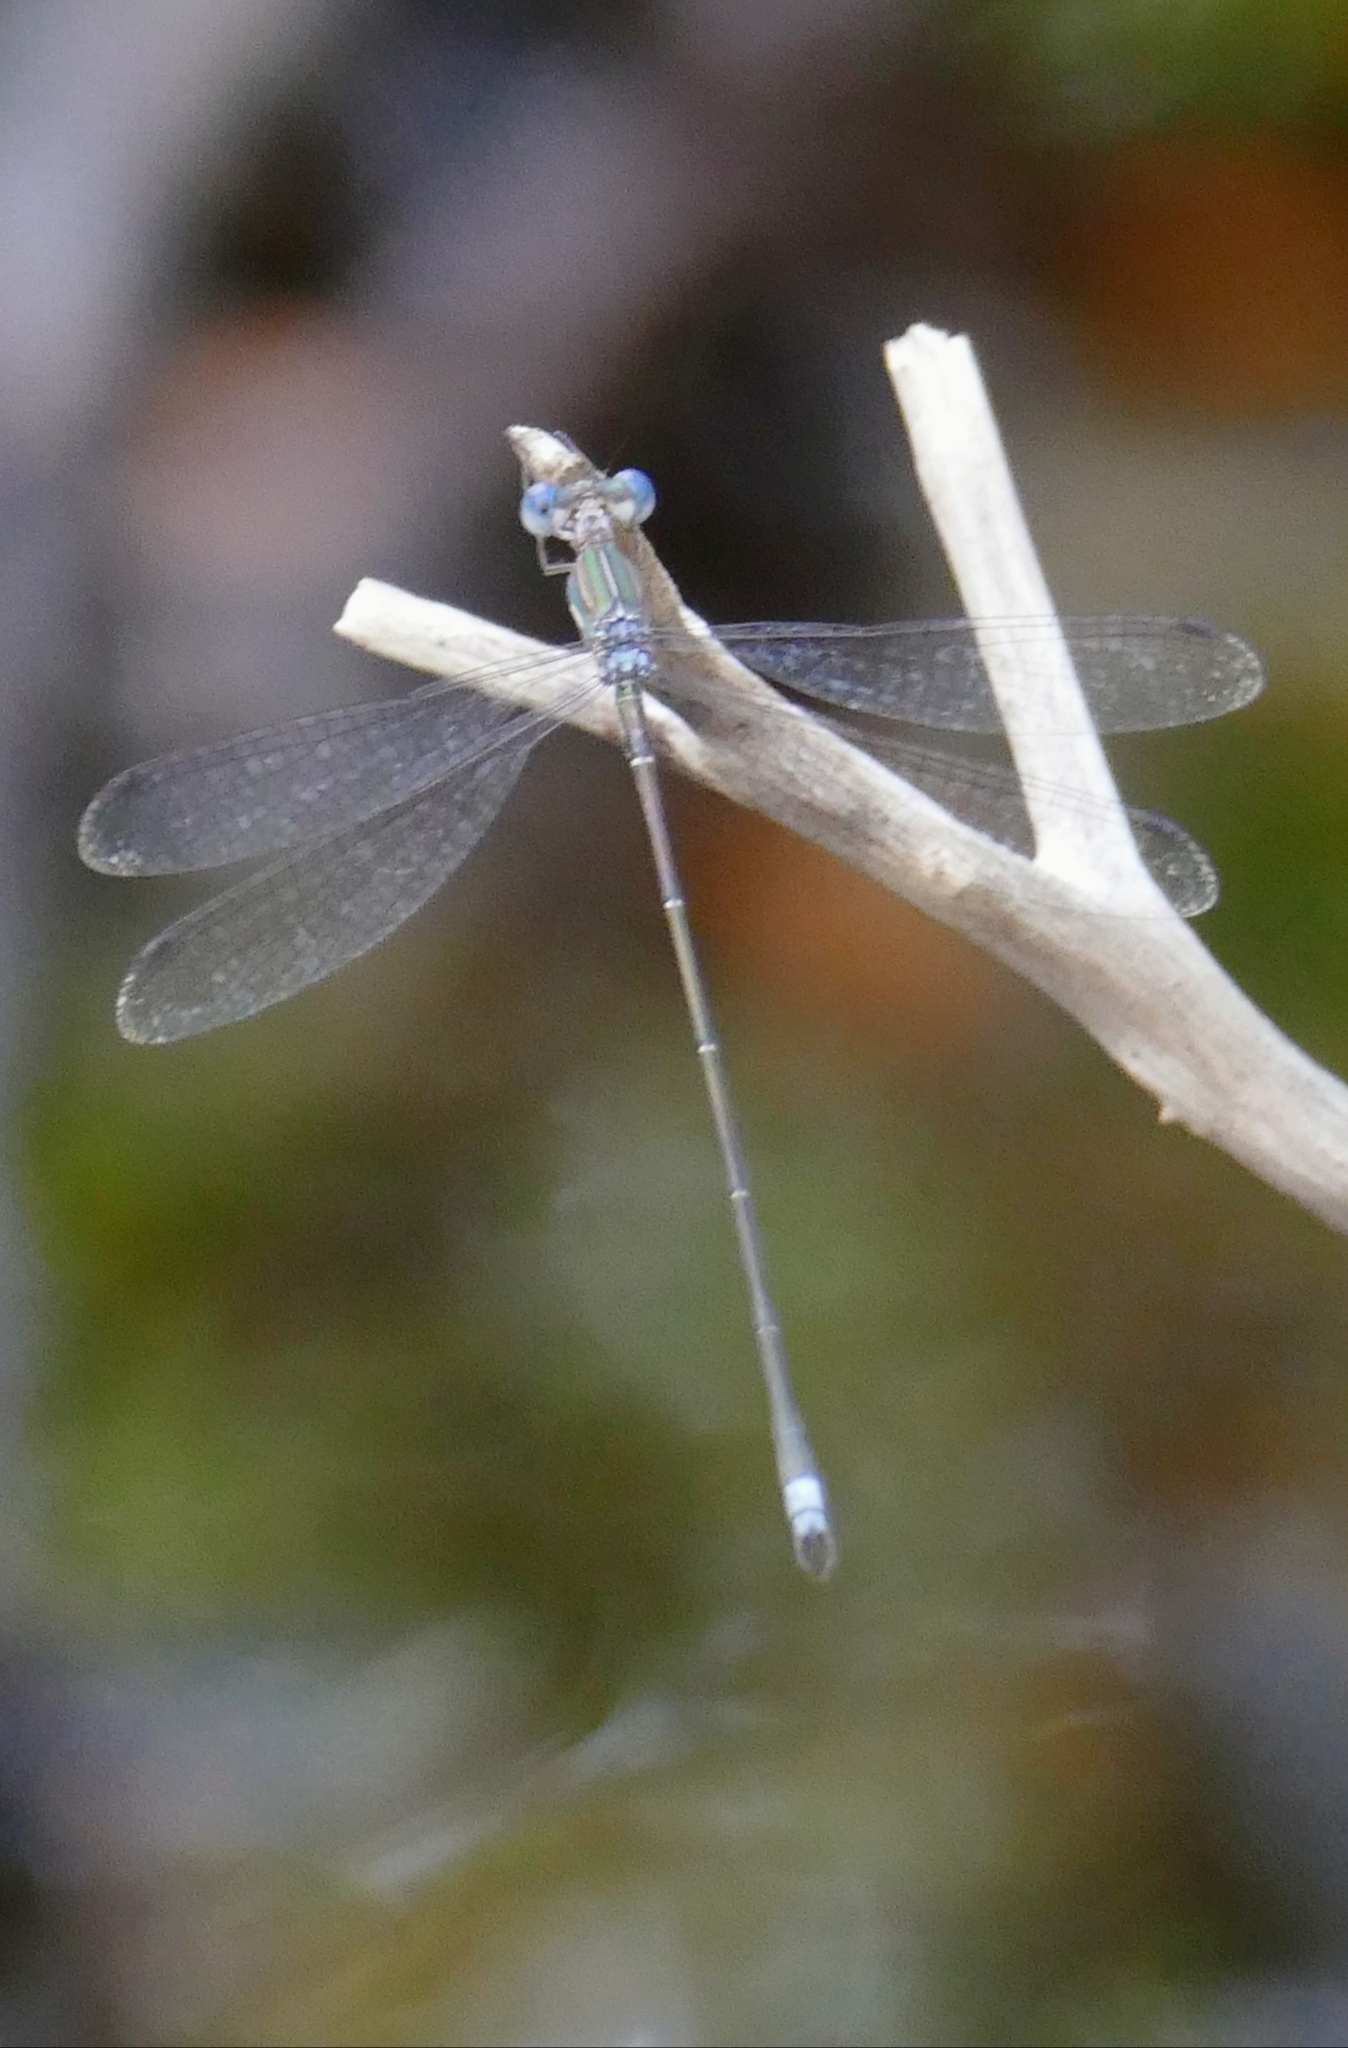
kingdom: Animalia
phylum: Arthropoda
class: Insecta
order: Odonata
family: Lestidae
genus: Lestes
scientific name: Lestes spumarius
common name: Antillean spreadwing
